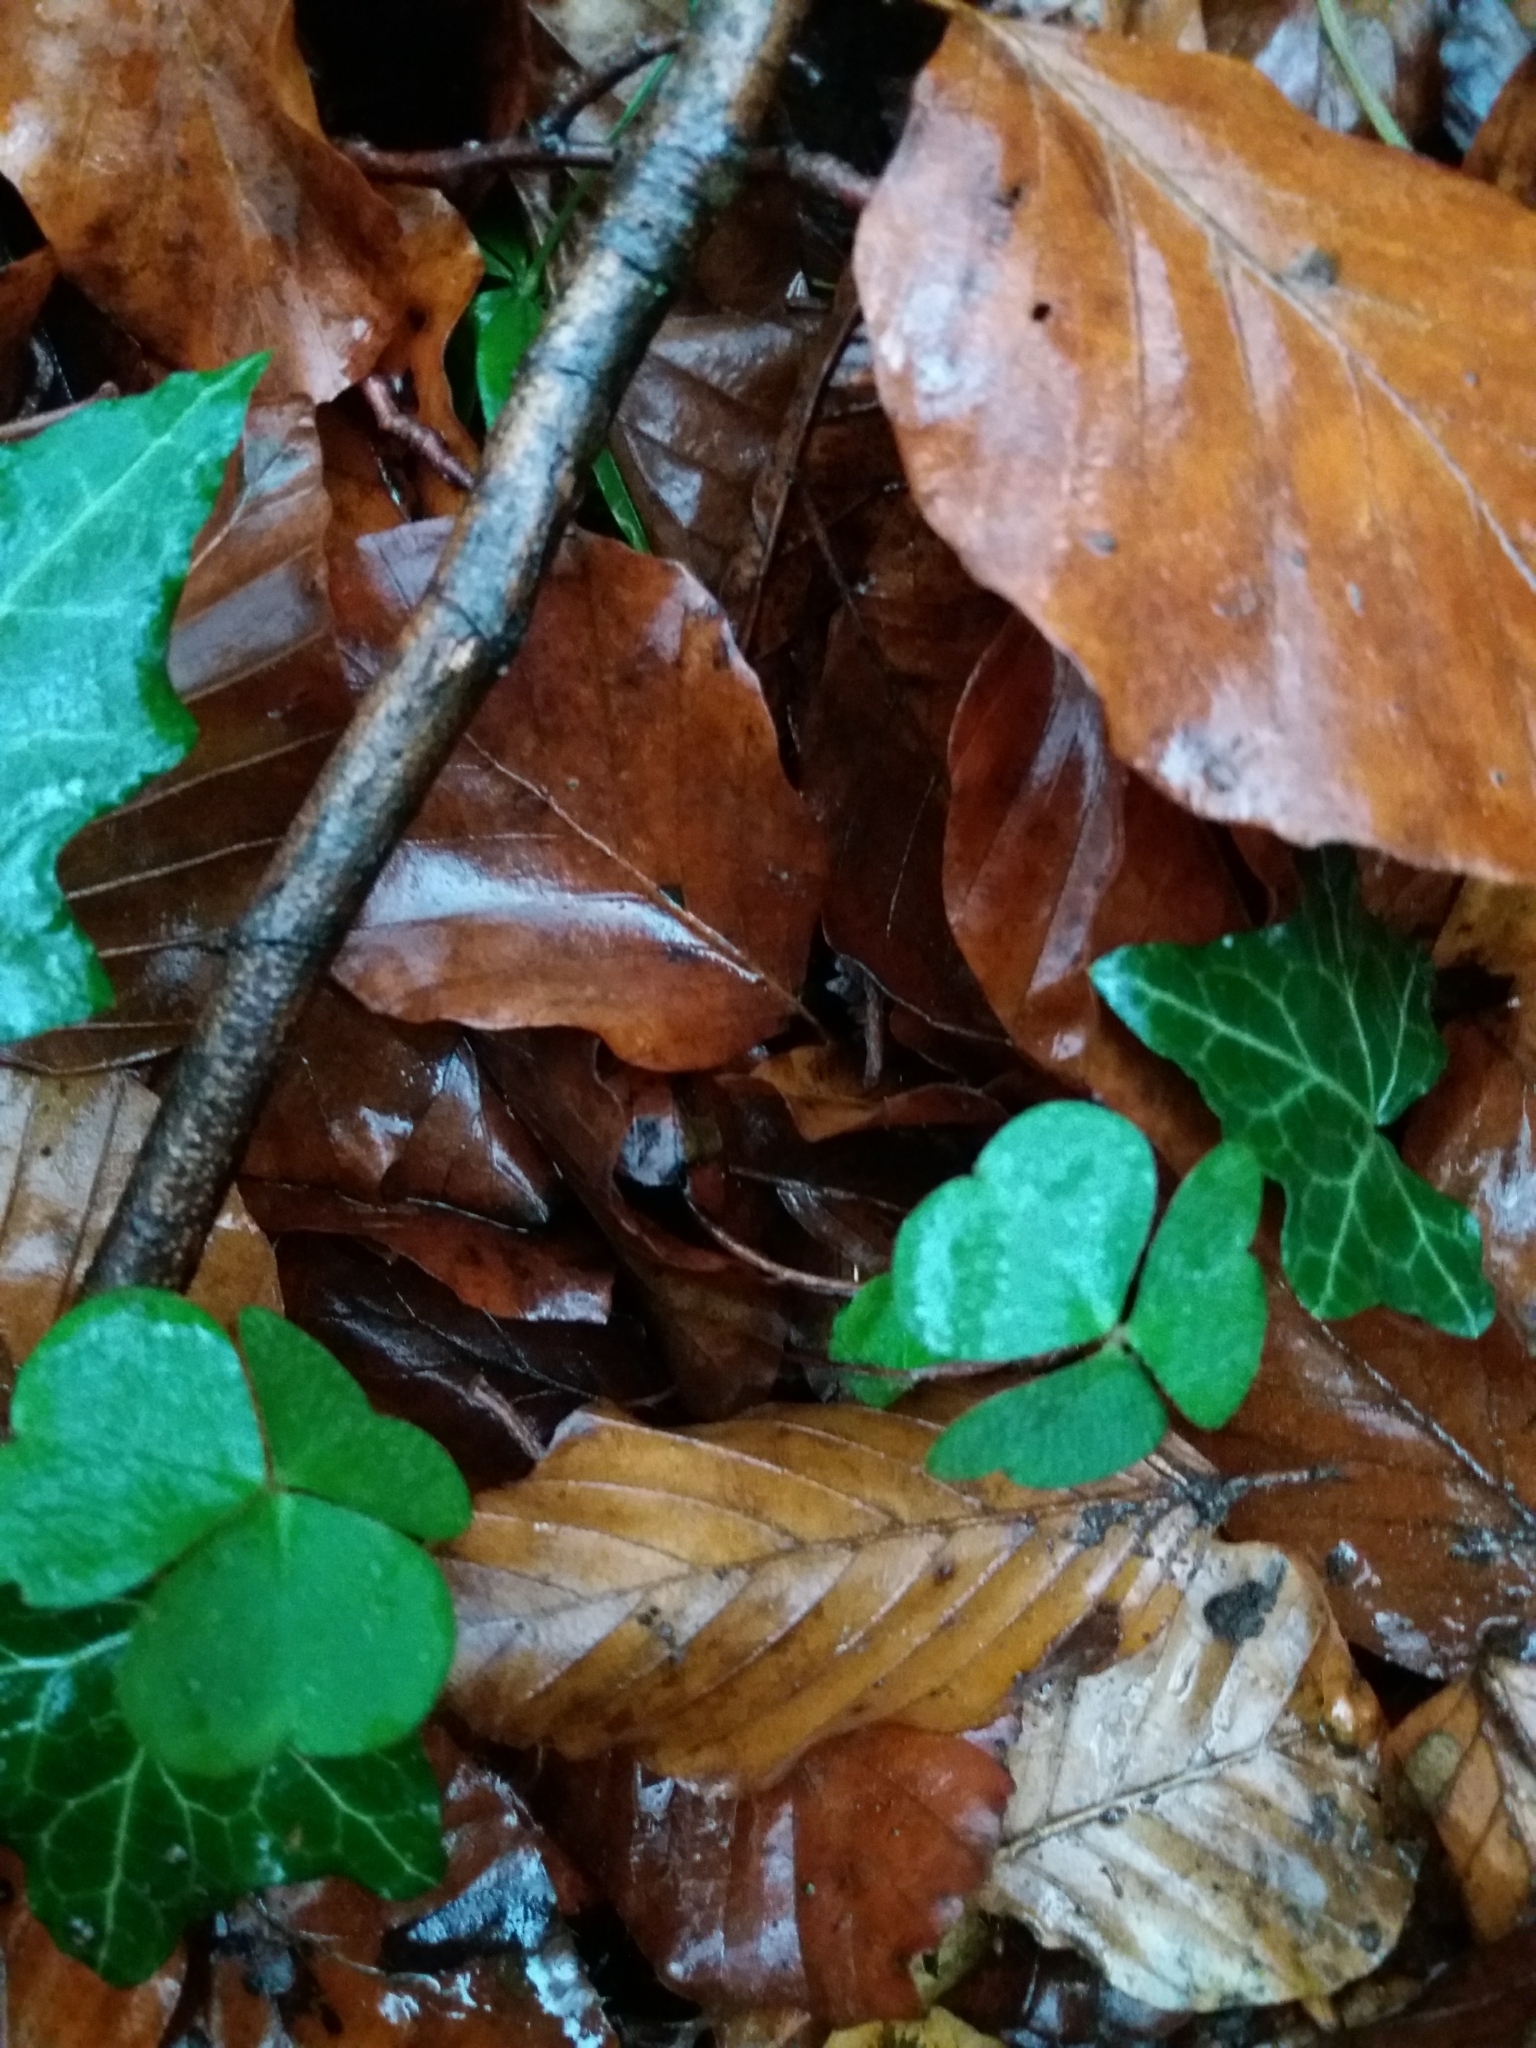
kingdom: Plantae
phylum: Tracheophyta
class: Magnoliopsida
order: Oxalidales
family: Oxalidaceae
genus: Oxalis
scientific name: Oxalis acetosella
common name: Wood-sorrel
